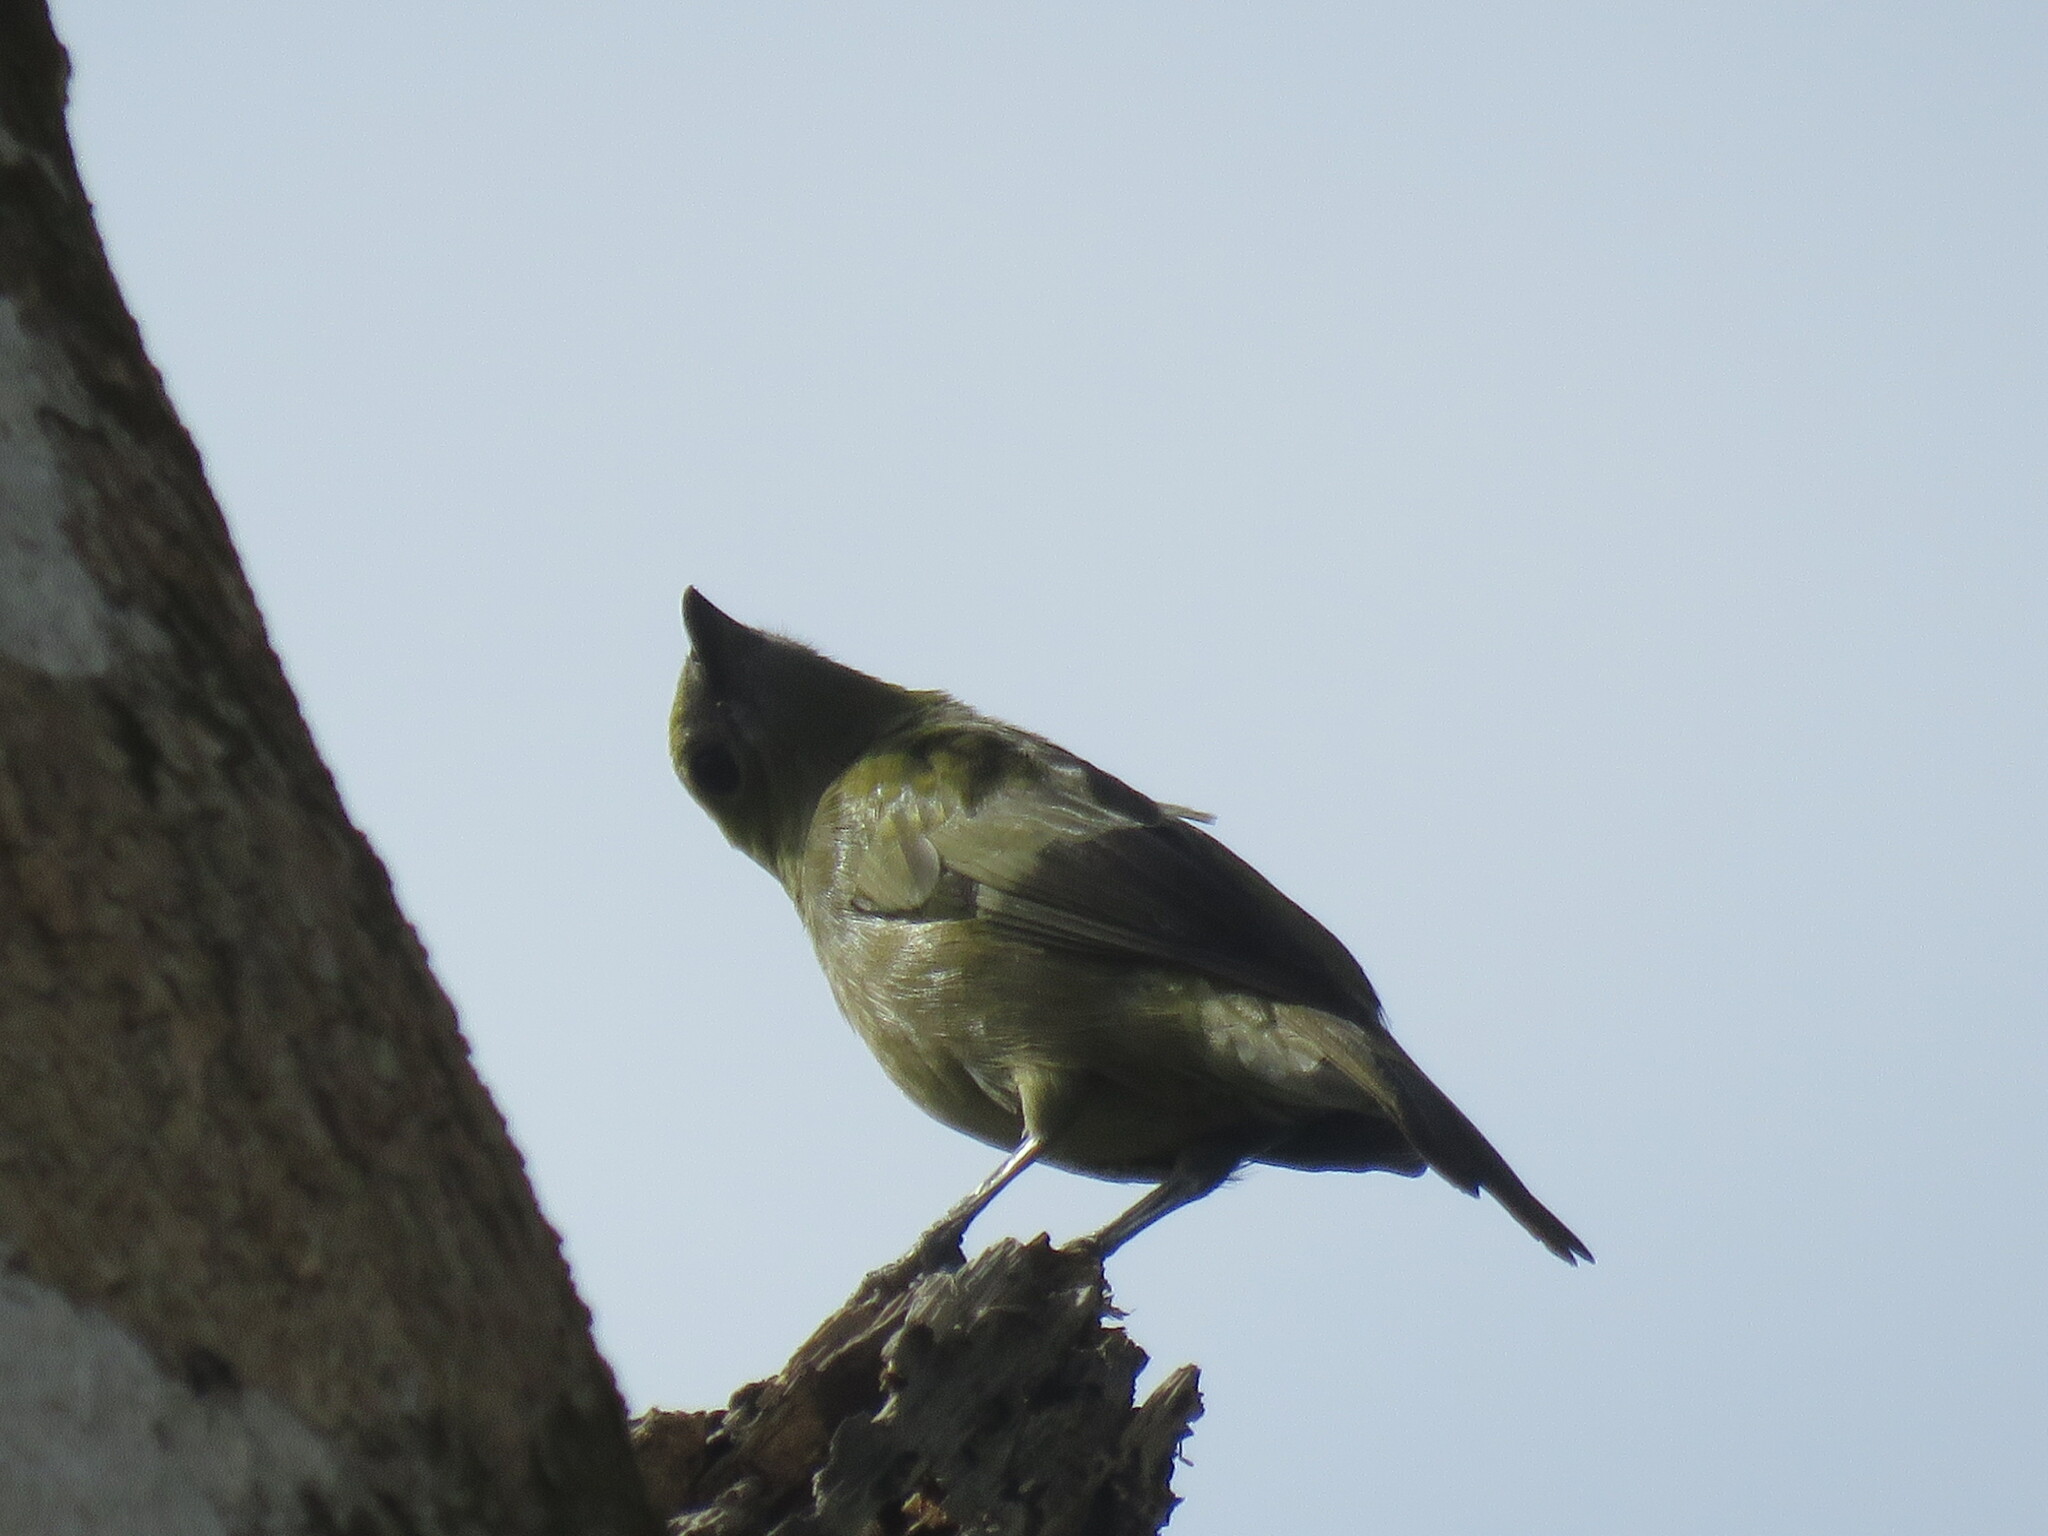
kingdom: Animalia
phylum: Chordata
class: Aves
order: Passeriformes
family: Thraupidae
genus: Thraupis
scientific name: Thraupis palmarum
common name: Palm tanager
